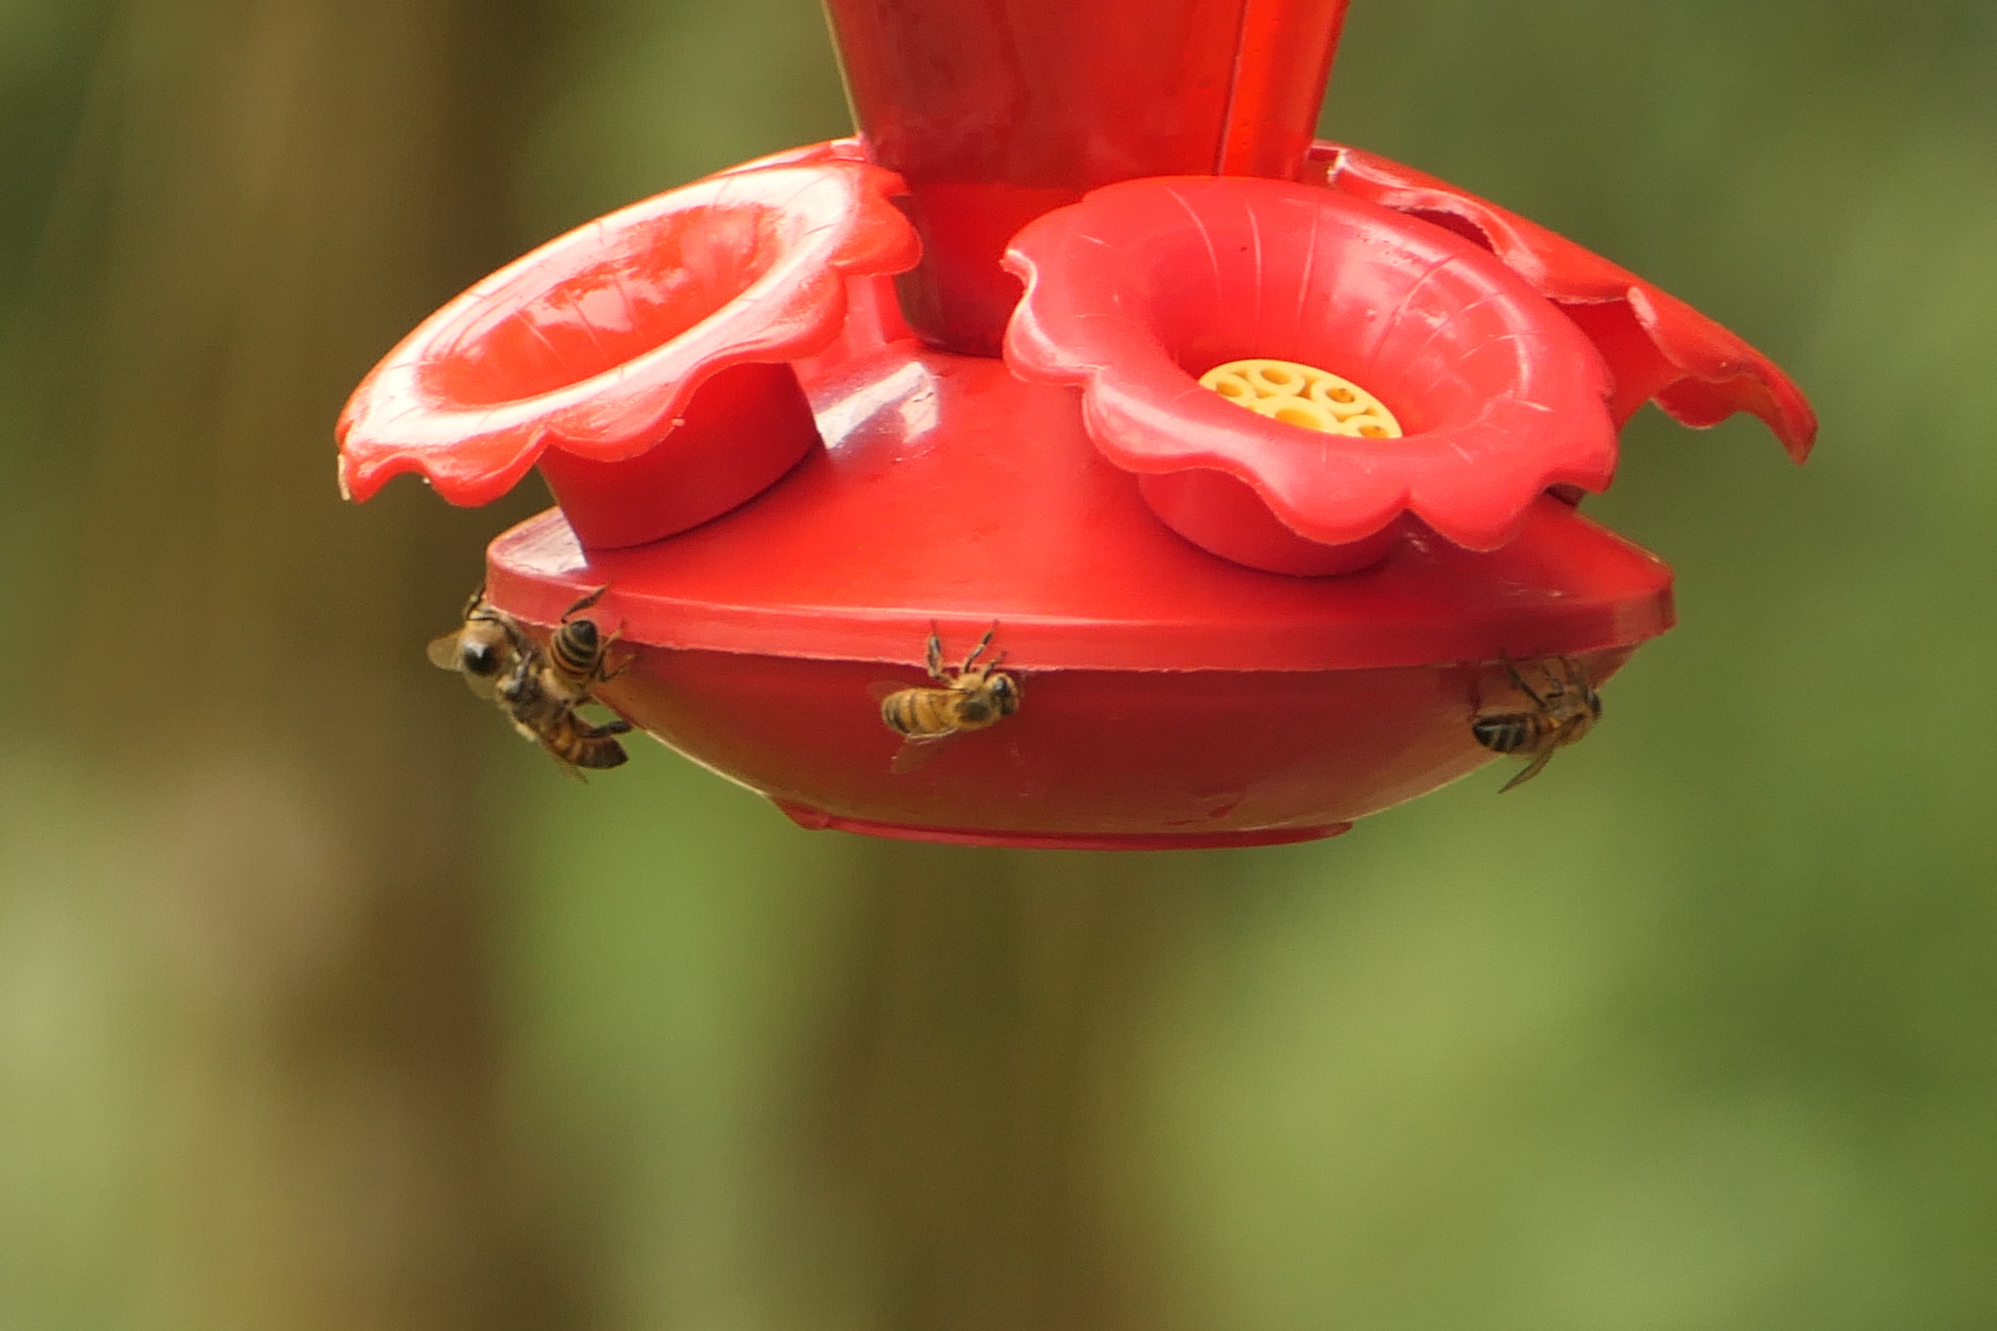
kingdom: Animalia
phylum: Arthropoda
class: Insecta
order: Hymenoptera
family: Apidae
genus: Apis
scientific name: Apis mellifera
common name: Honey bee
